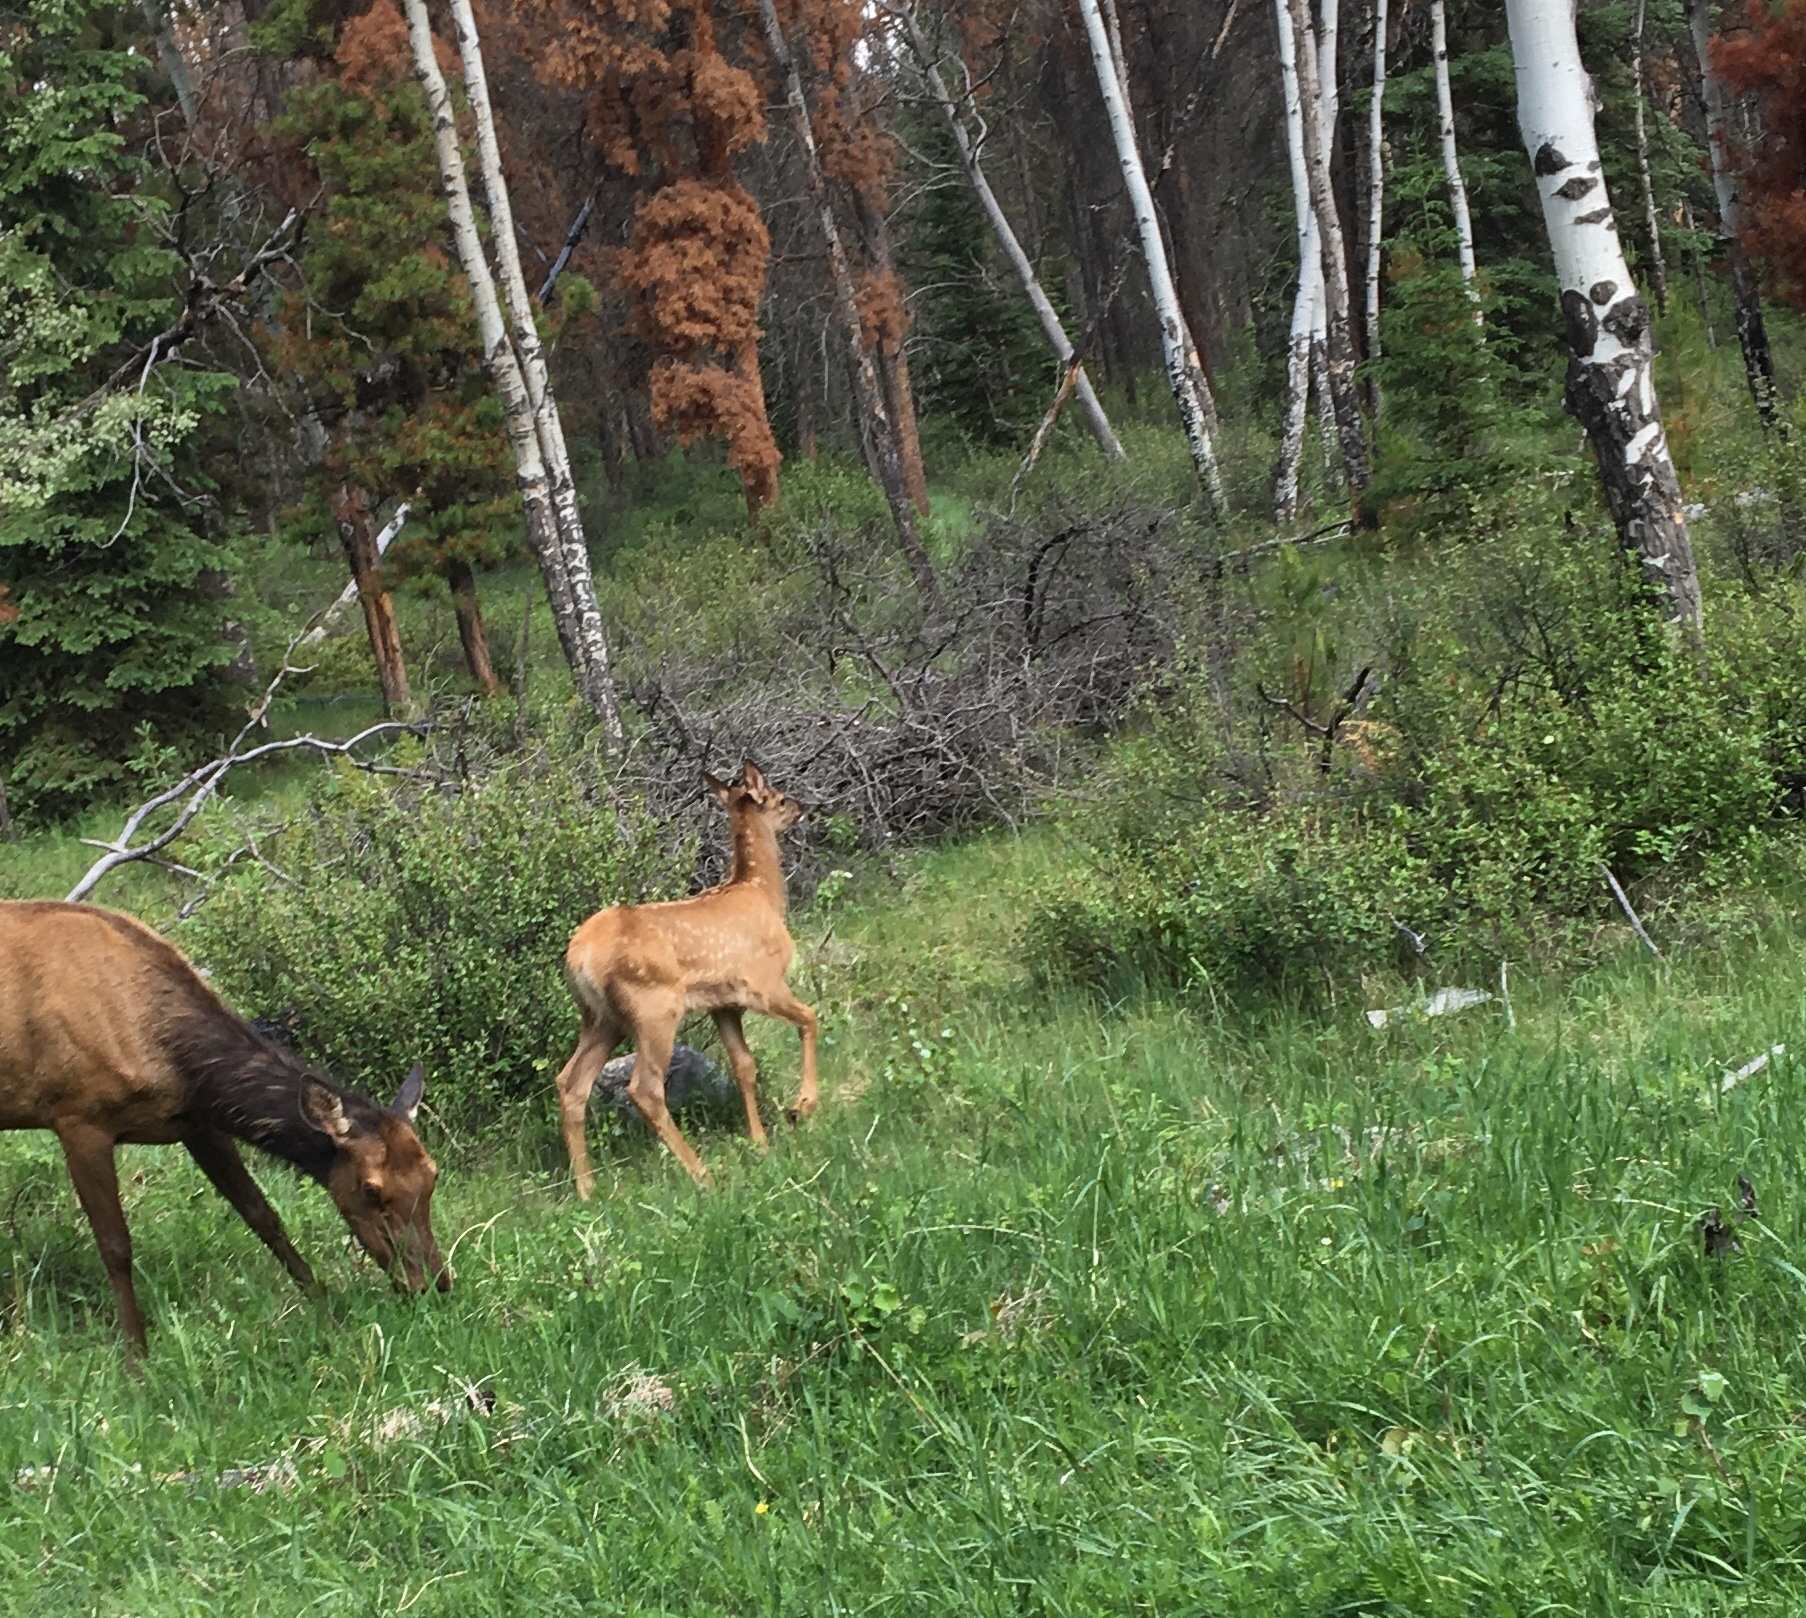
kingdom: Animalia
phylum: Chordata
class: Mammalia
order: Artiodactyla
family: Cervidae
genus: Cervus
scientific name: Cervus elaphus
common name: Red deer
